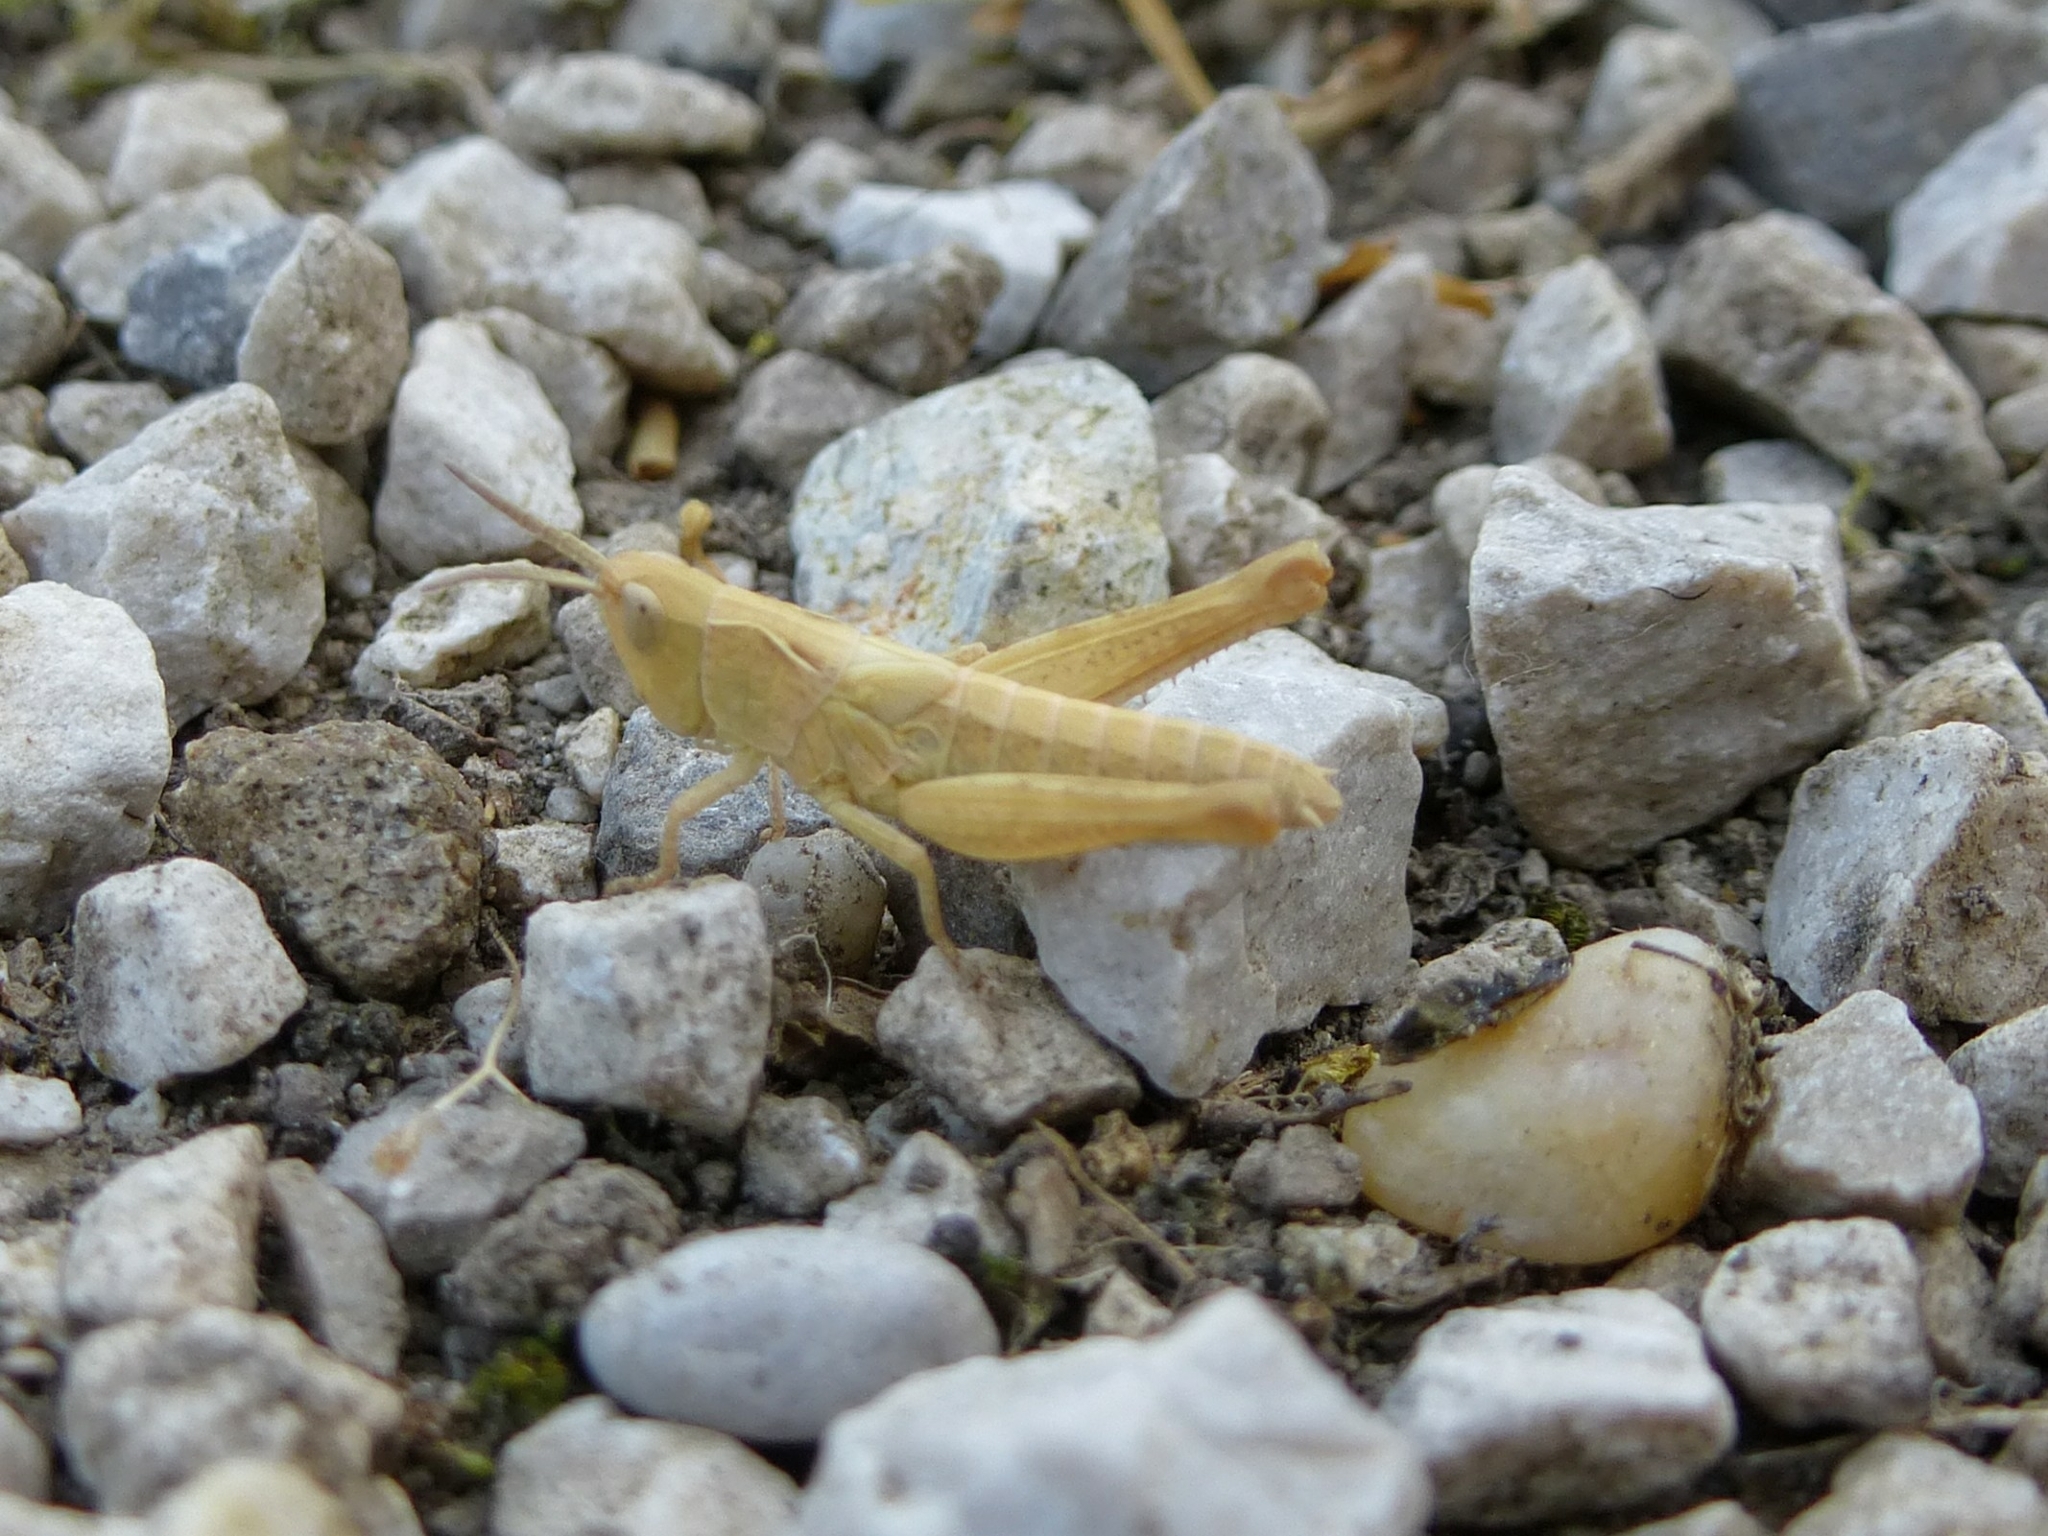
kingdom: Animalia
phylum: Arthropoda
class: Insecta
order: Orthoptera
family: Acrididae
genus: Chorthippus
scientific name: Chorthippus
